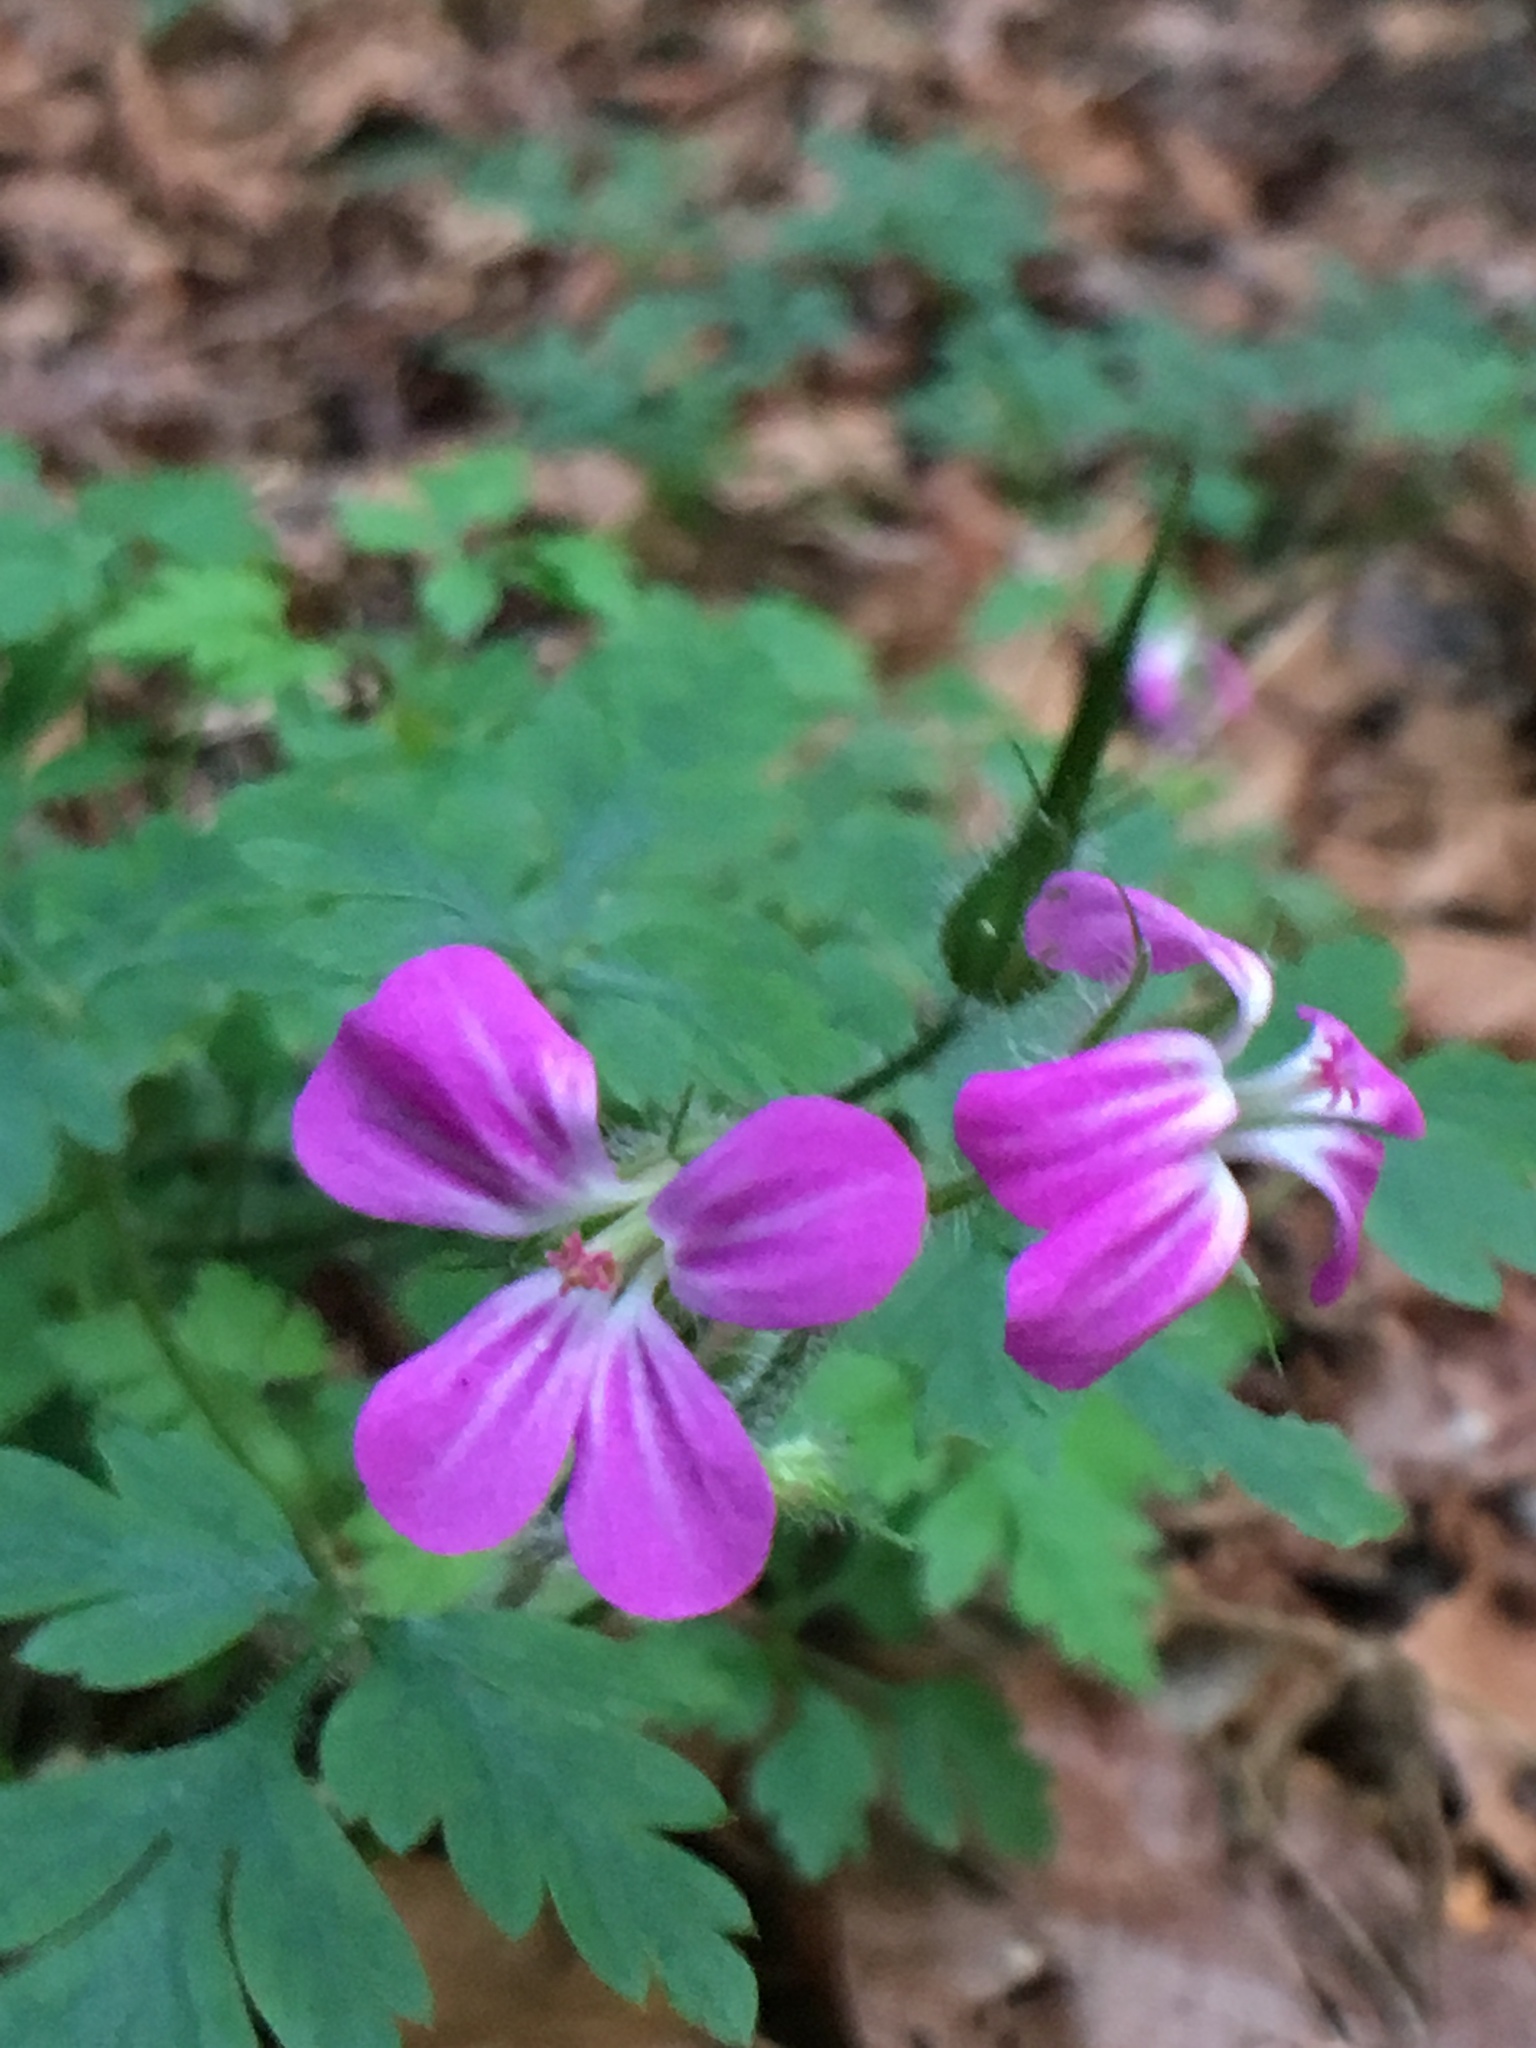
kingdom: Plantae
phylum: Tracheophyta
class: Magnoliopsida
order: Geraniales
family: Geraniaceae
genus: Geranium
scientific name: Geranium robertianum
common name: Herb-robert
